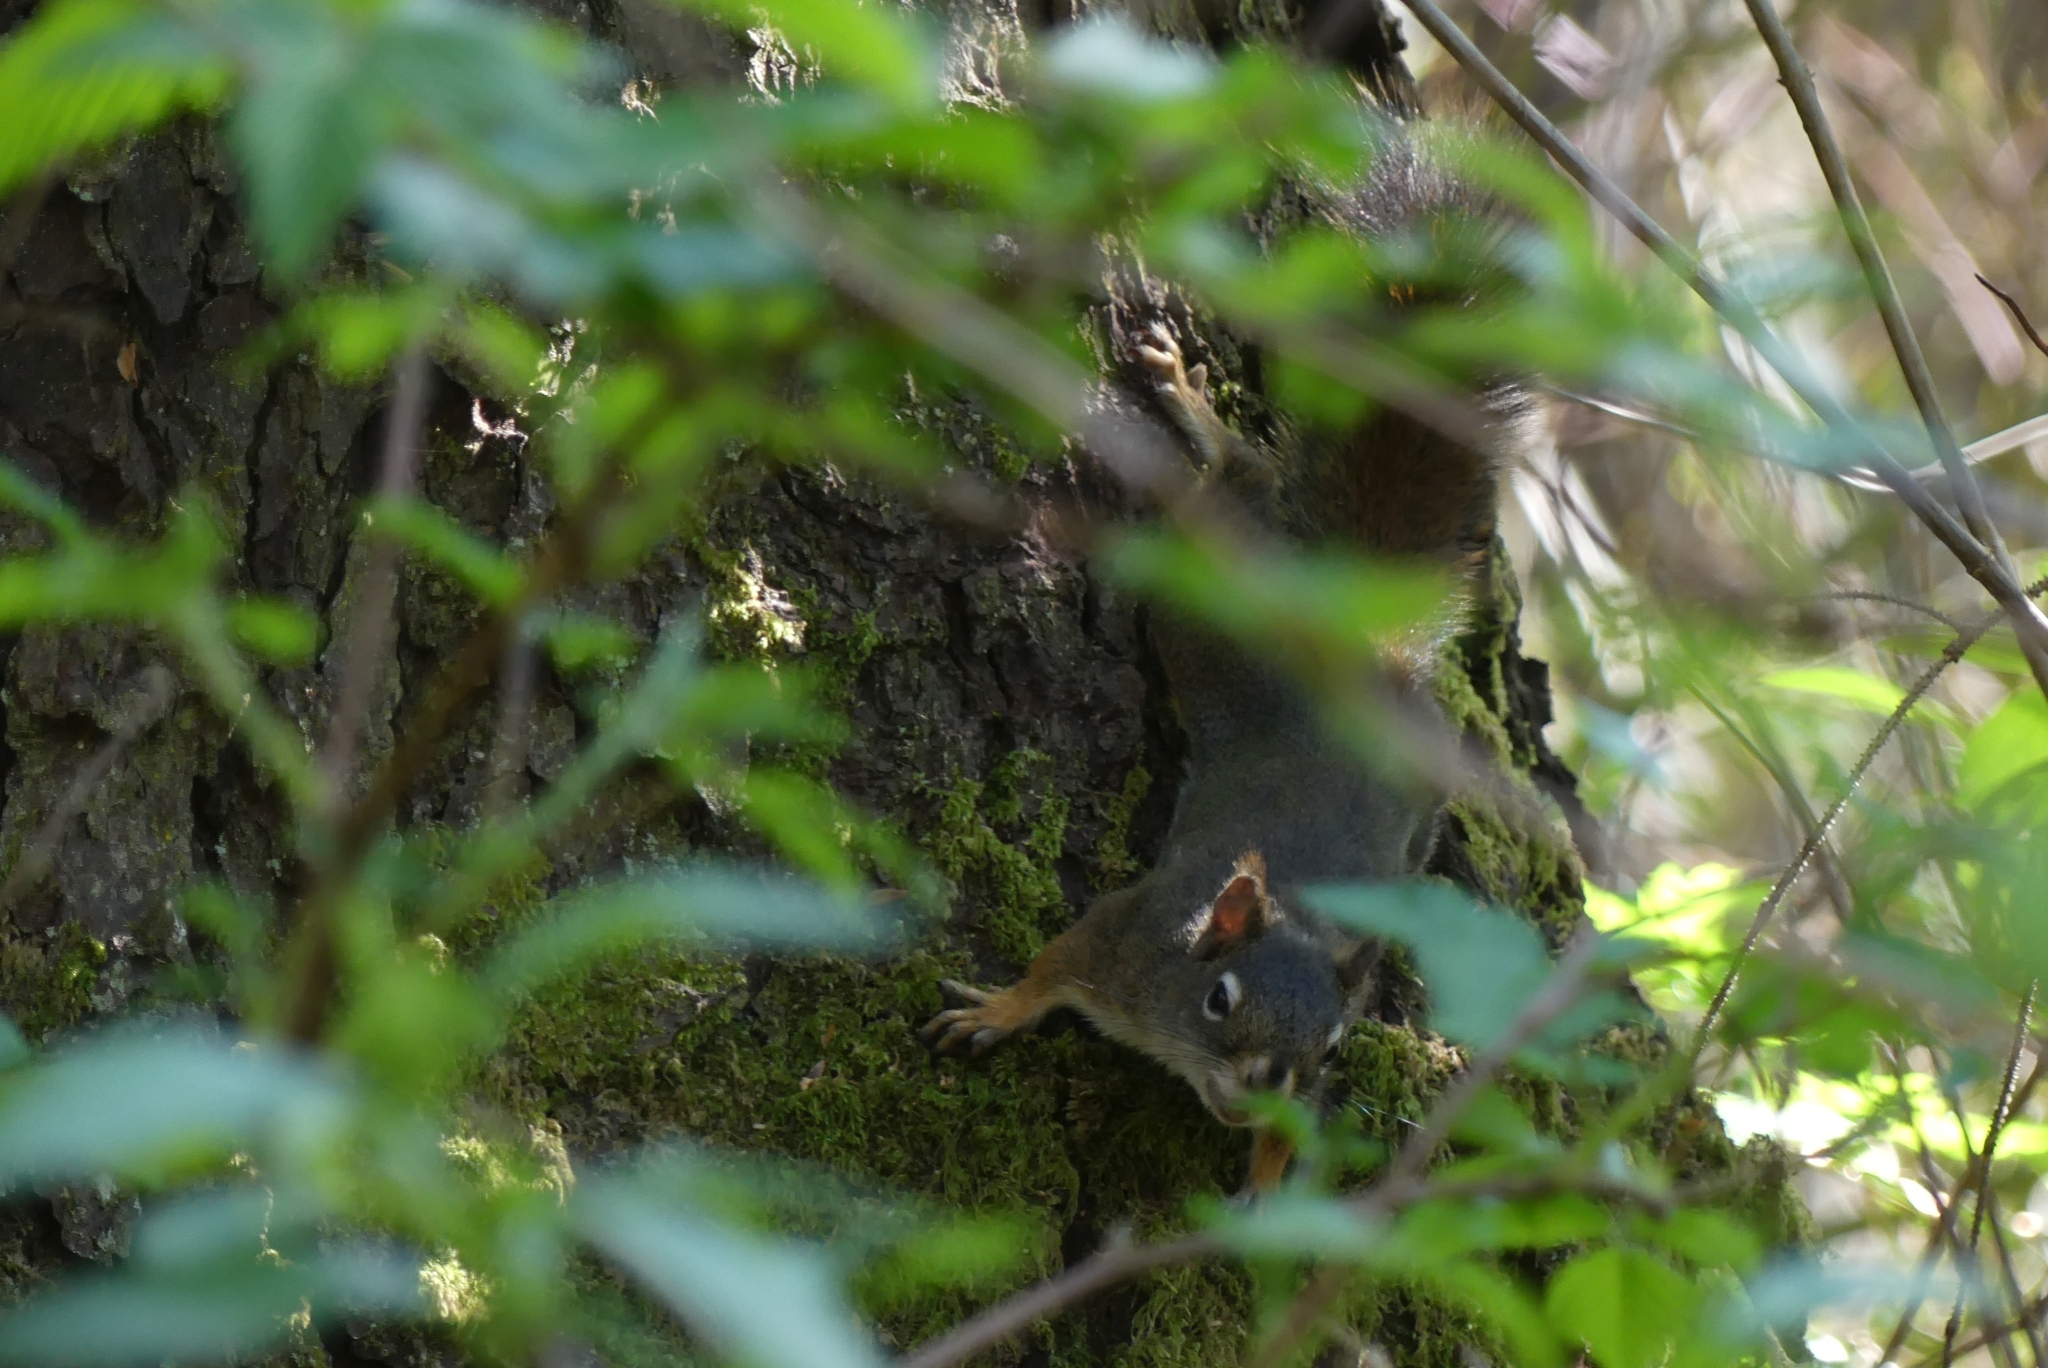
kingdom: Animalia
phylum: Chordata
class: Mammalia
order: Rodentia
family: Sciuridae
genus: Tamiasciurus
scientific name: Tamiasciurus hudsonicus
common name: Red squirrel
